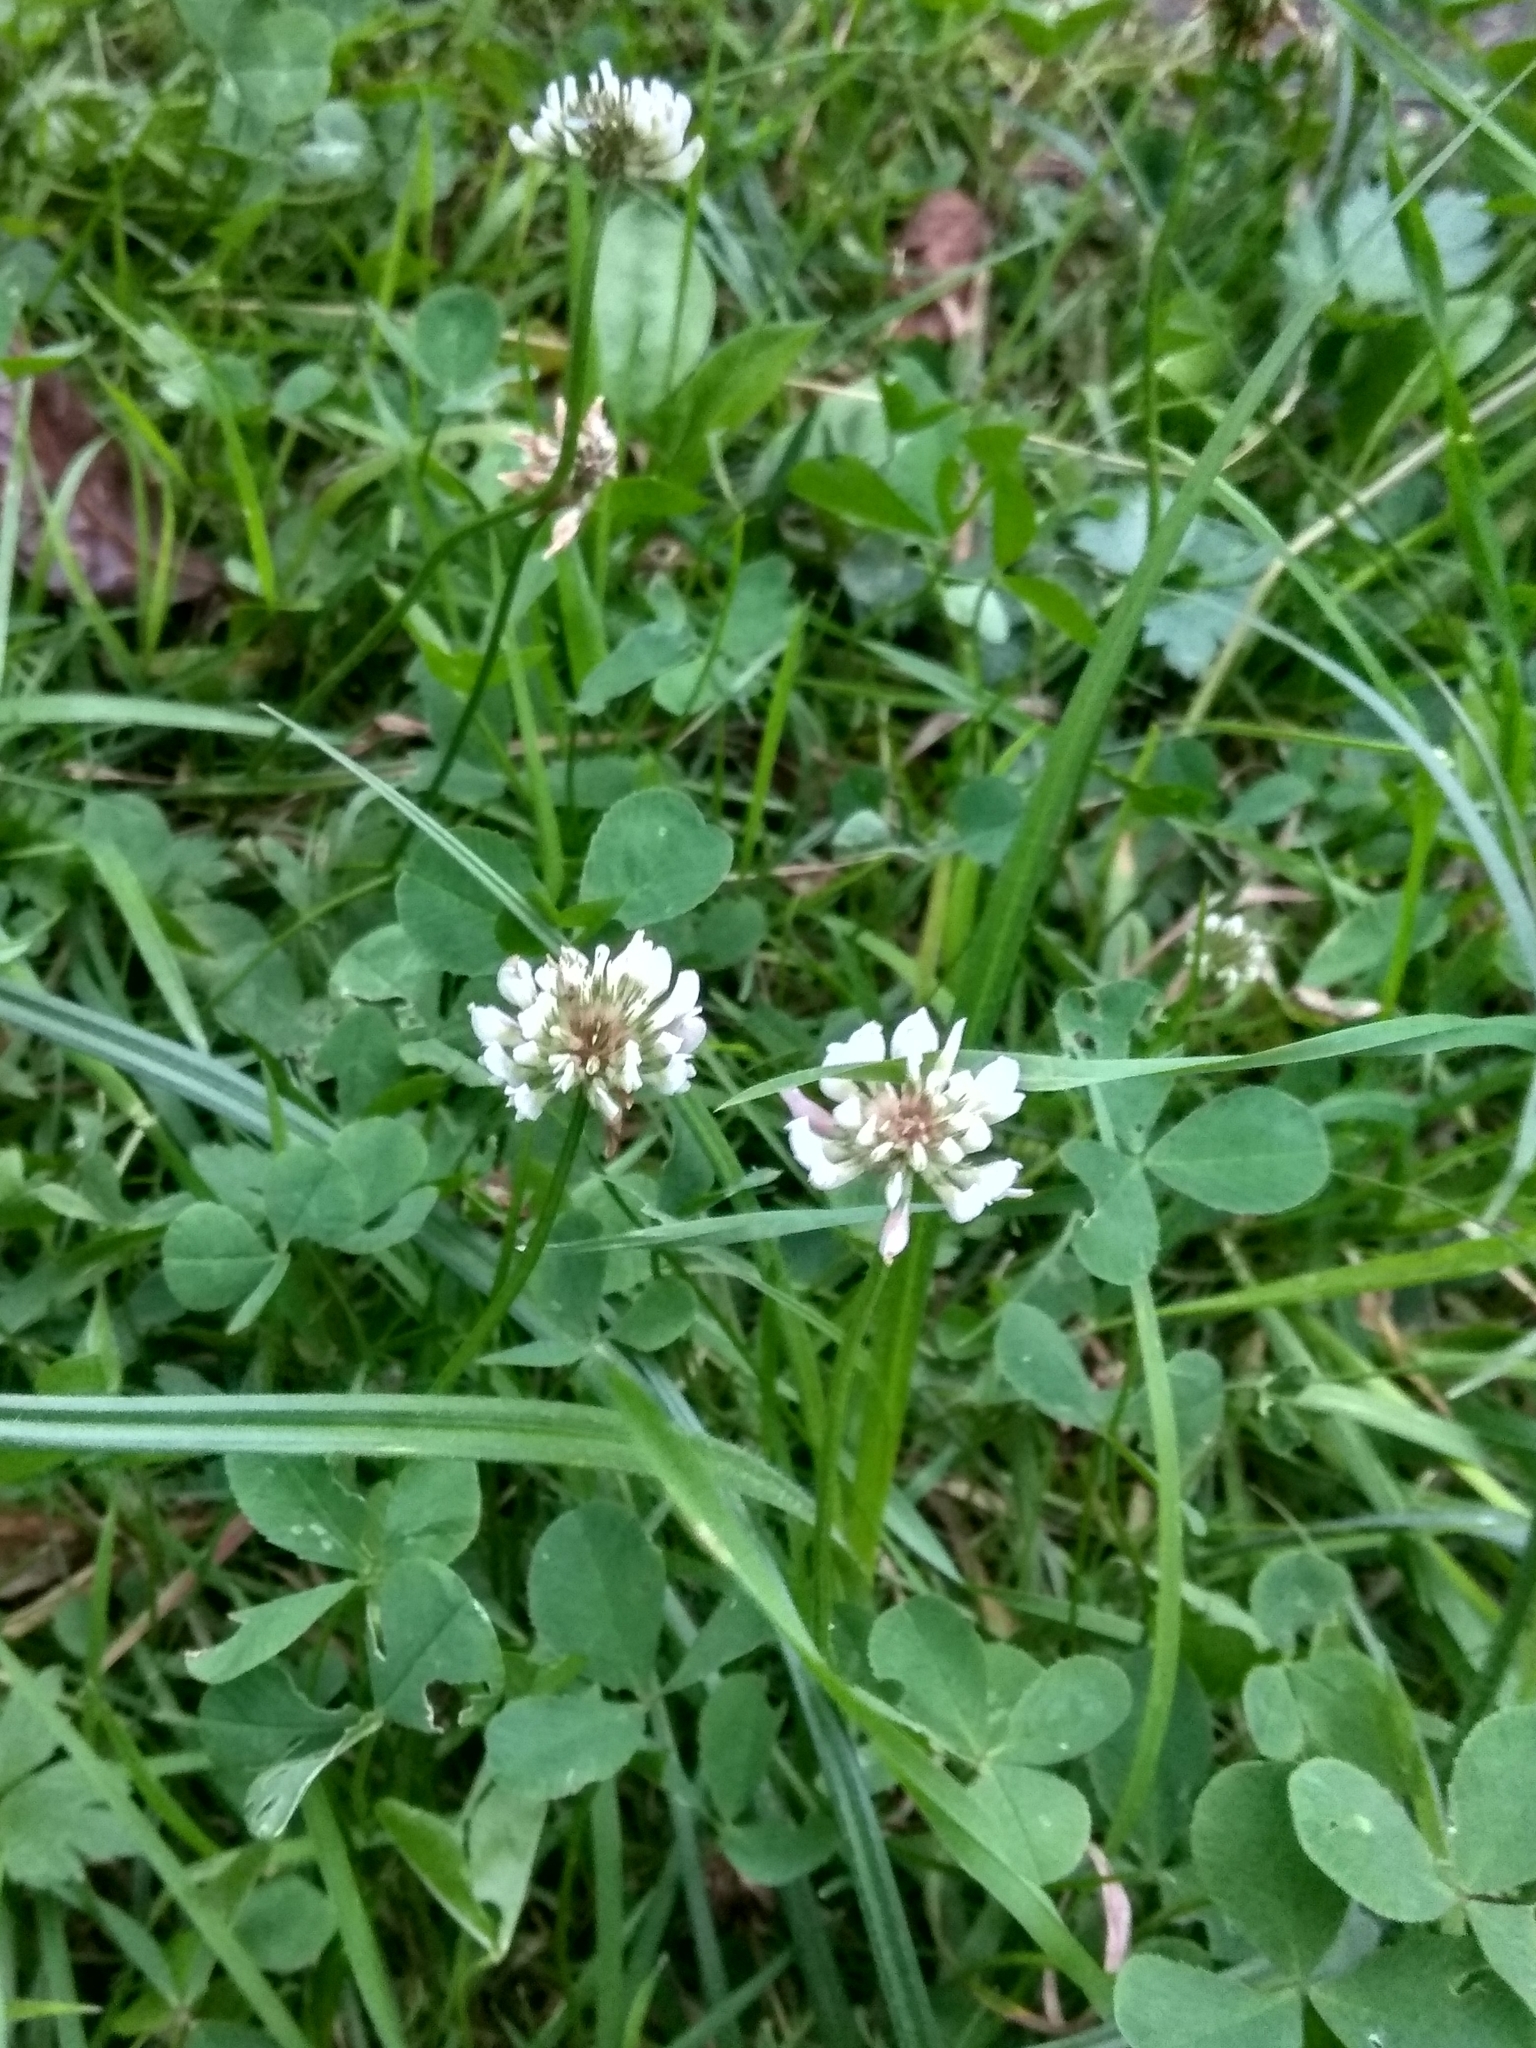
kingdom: Plantae
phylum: Tracheophyta
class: Magnoliopsida
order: Fabales
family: Fabaceae
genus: Trifolium
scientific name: Trifolium repens
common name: White clover
